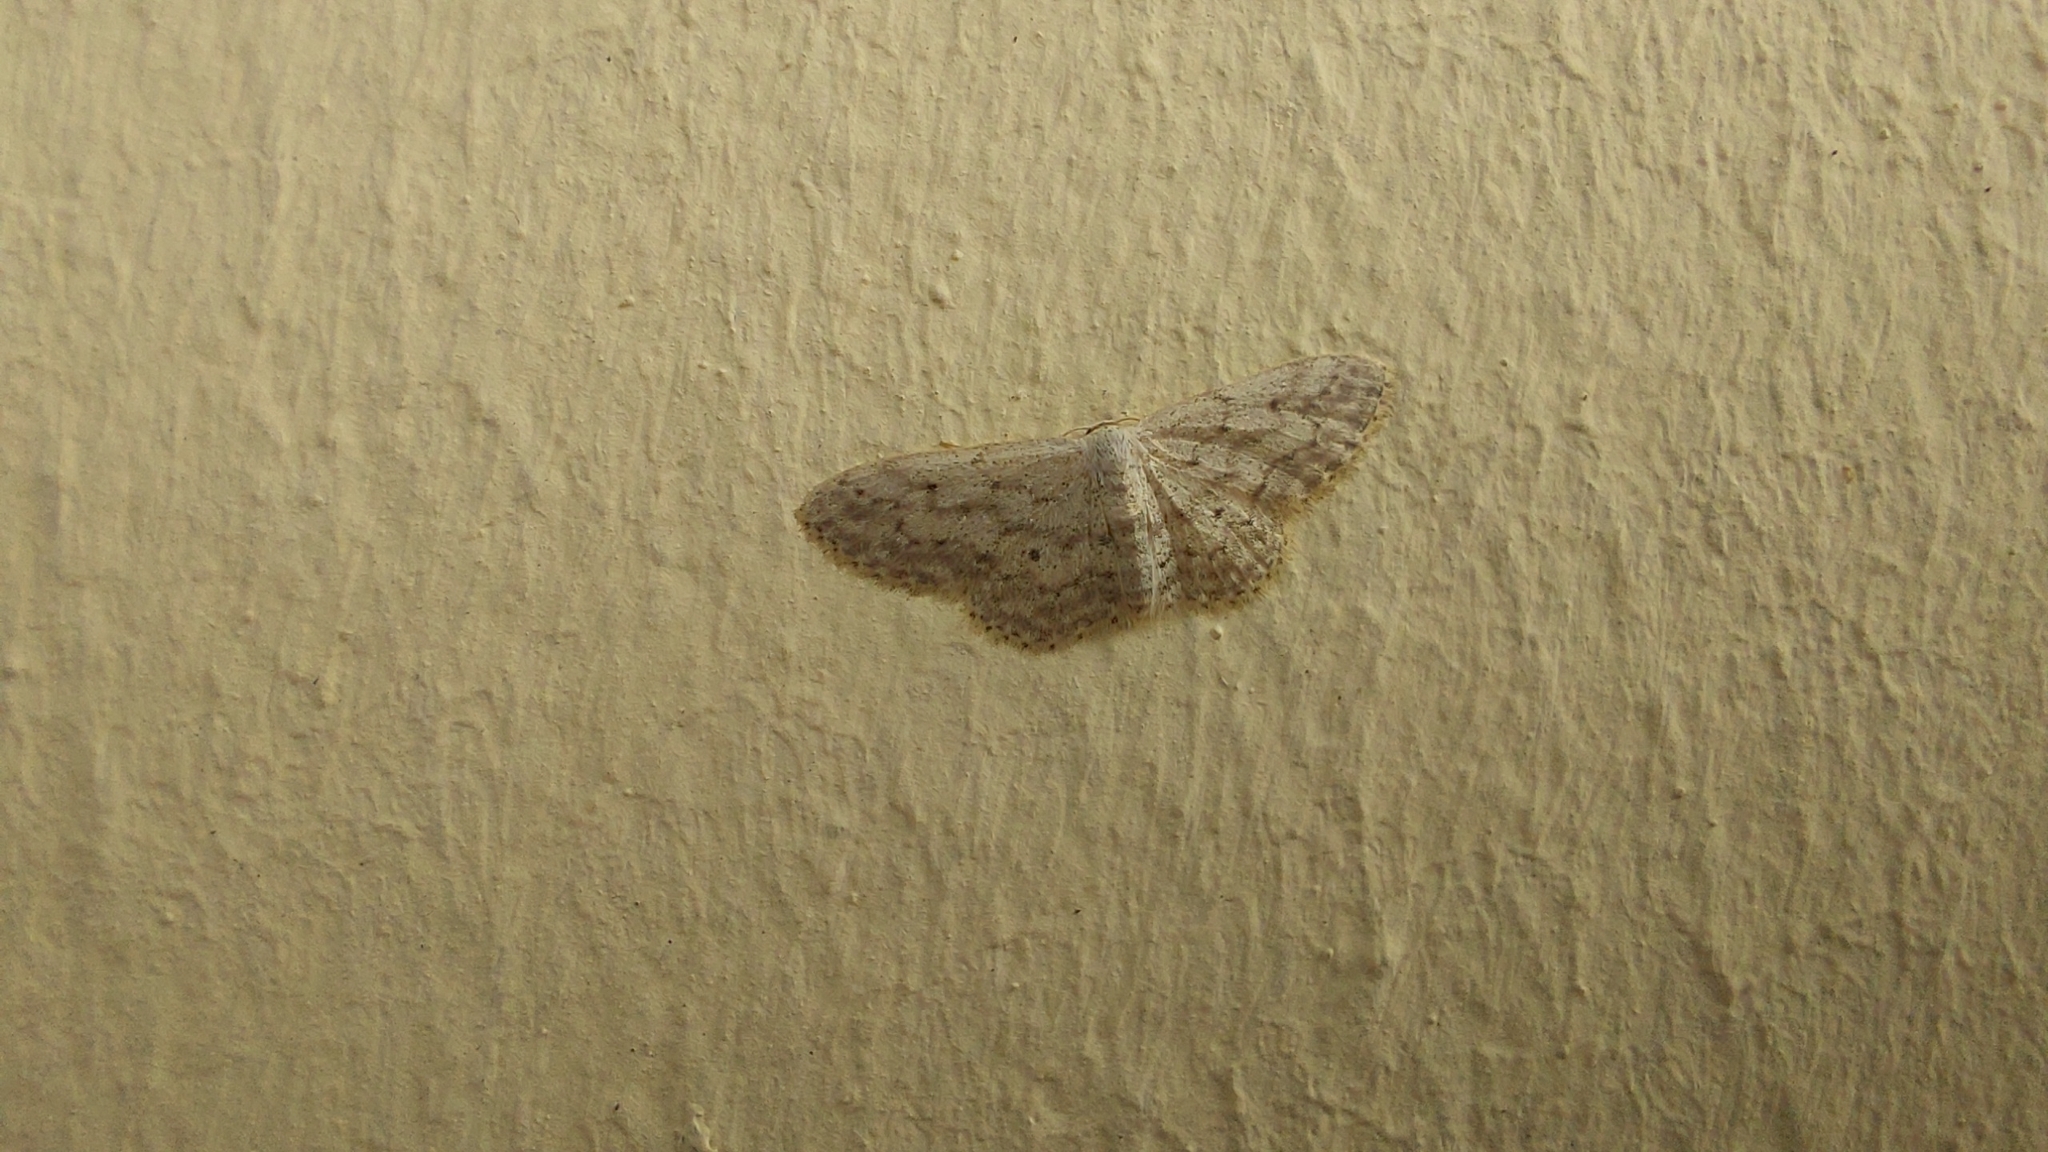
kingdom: Animalia
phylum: Arthropoda
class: Insecta
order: Lepidoptera
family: Geometridae
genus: Idaea
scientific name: Idaea seriata
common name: Small dusty wave
